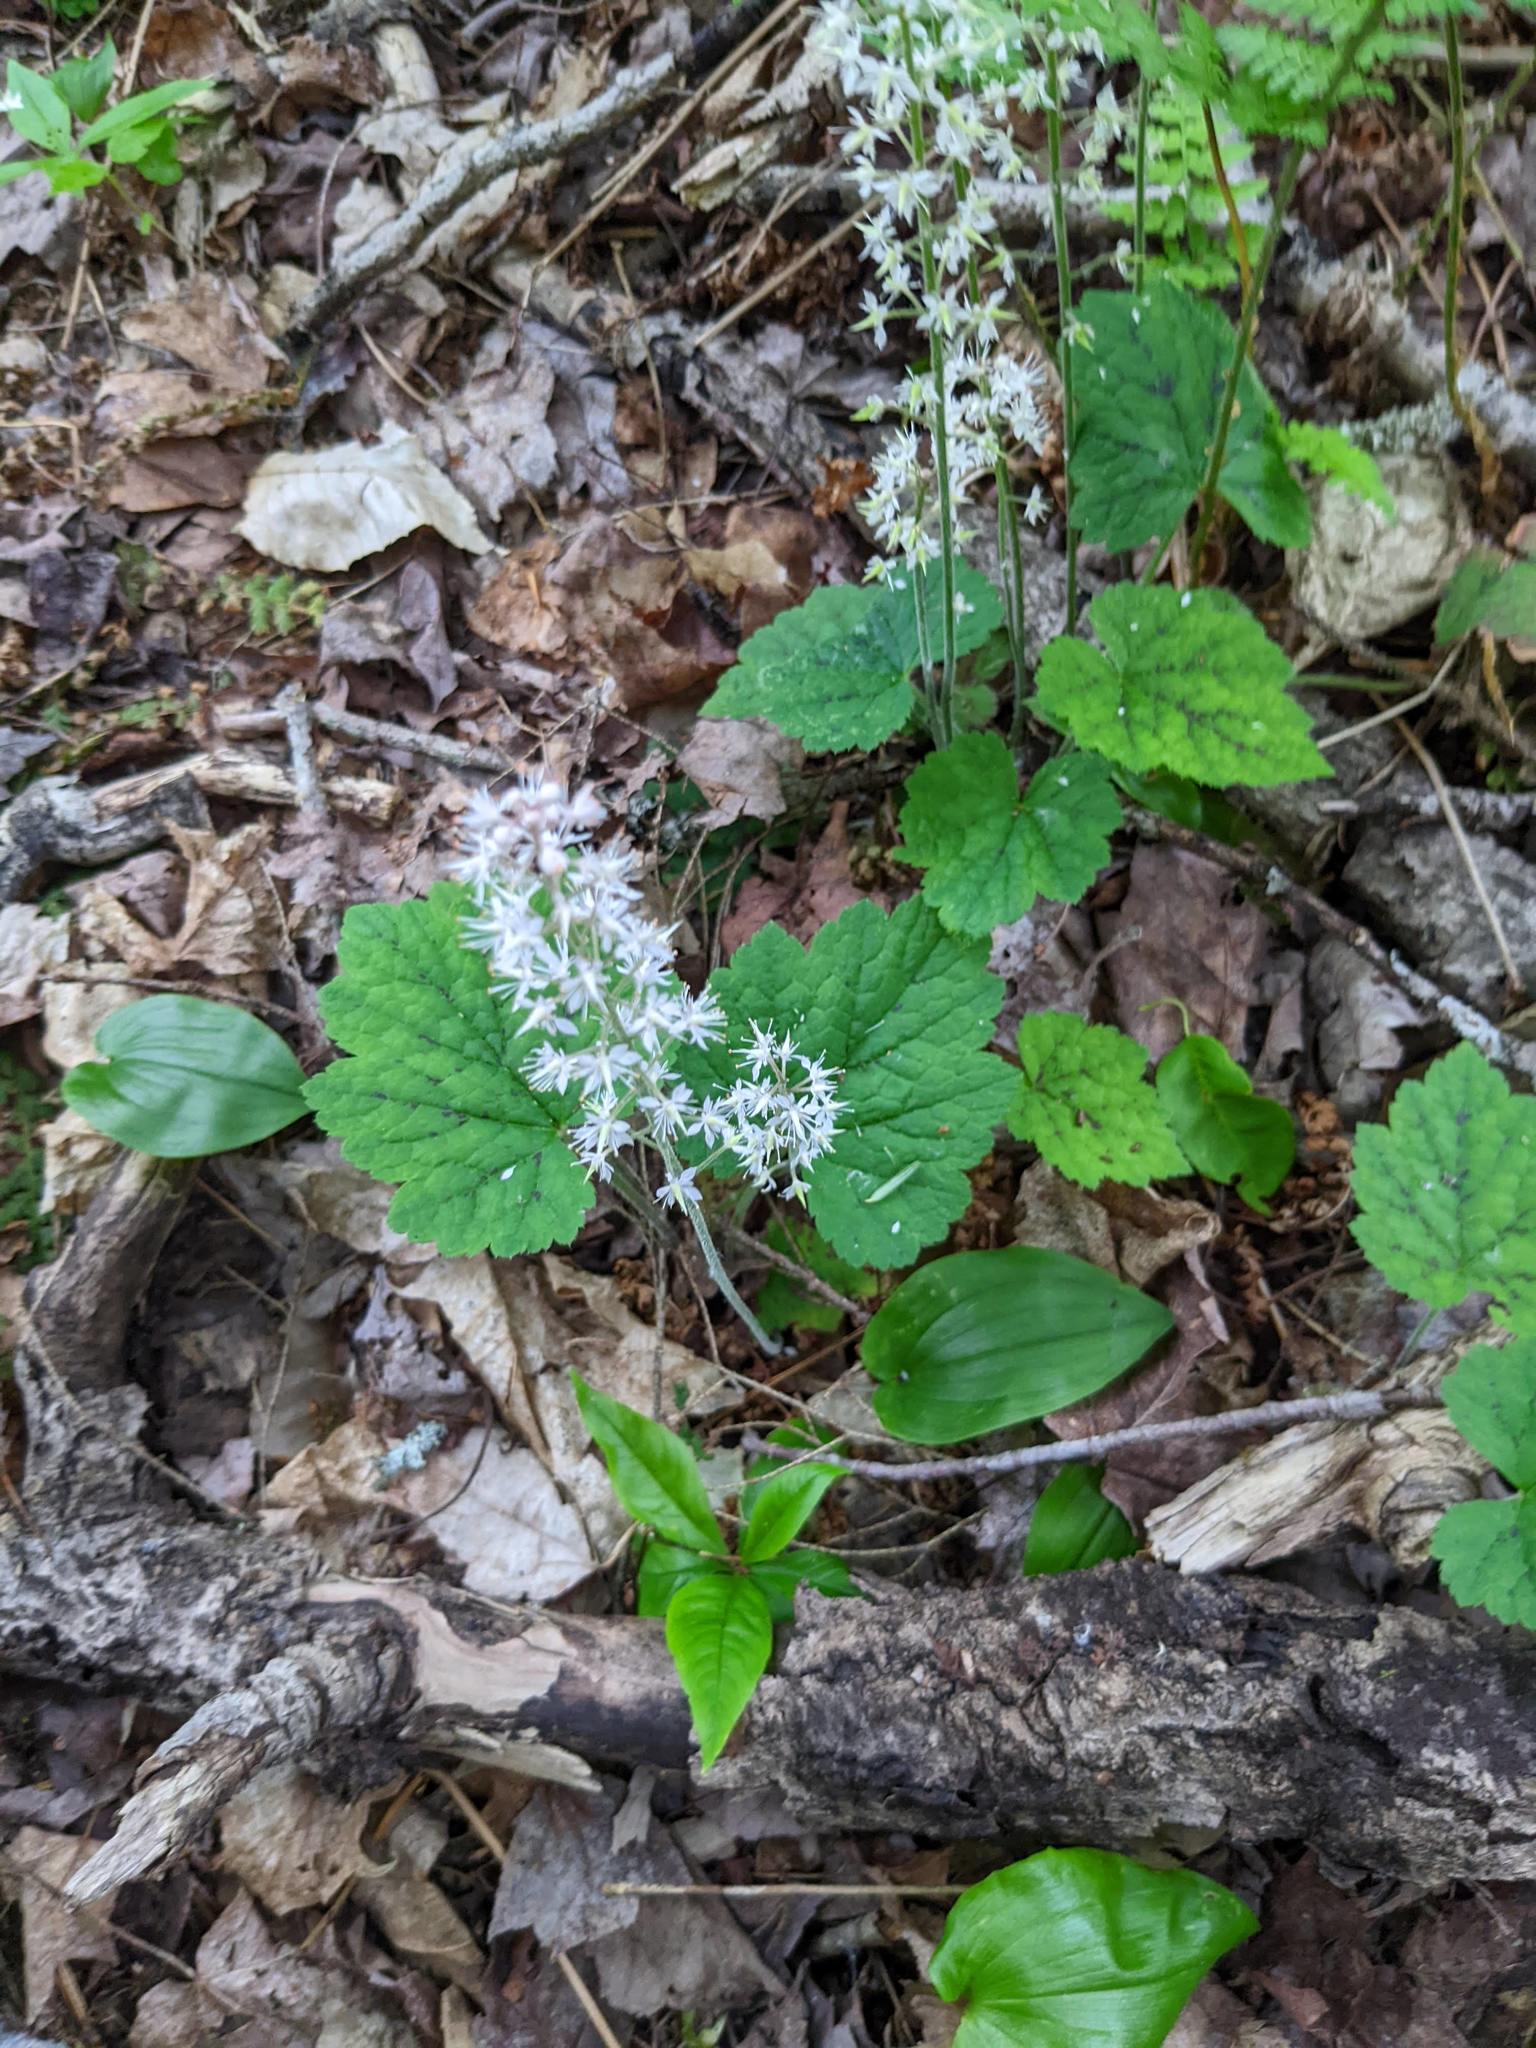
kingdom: Plantae
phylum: Tracheophyta
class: Magnoliopsida
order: Saxifragales
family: Saxifragaceae
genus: Tiarella
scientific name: Tiarella stolonifera
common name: Stoloniferous foamflower
